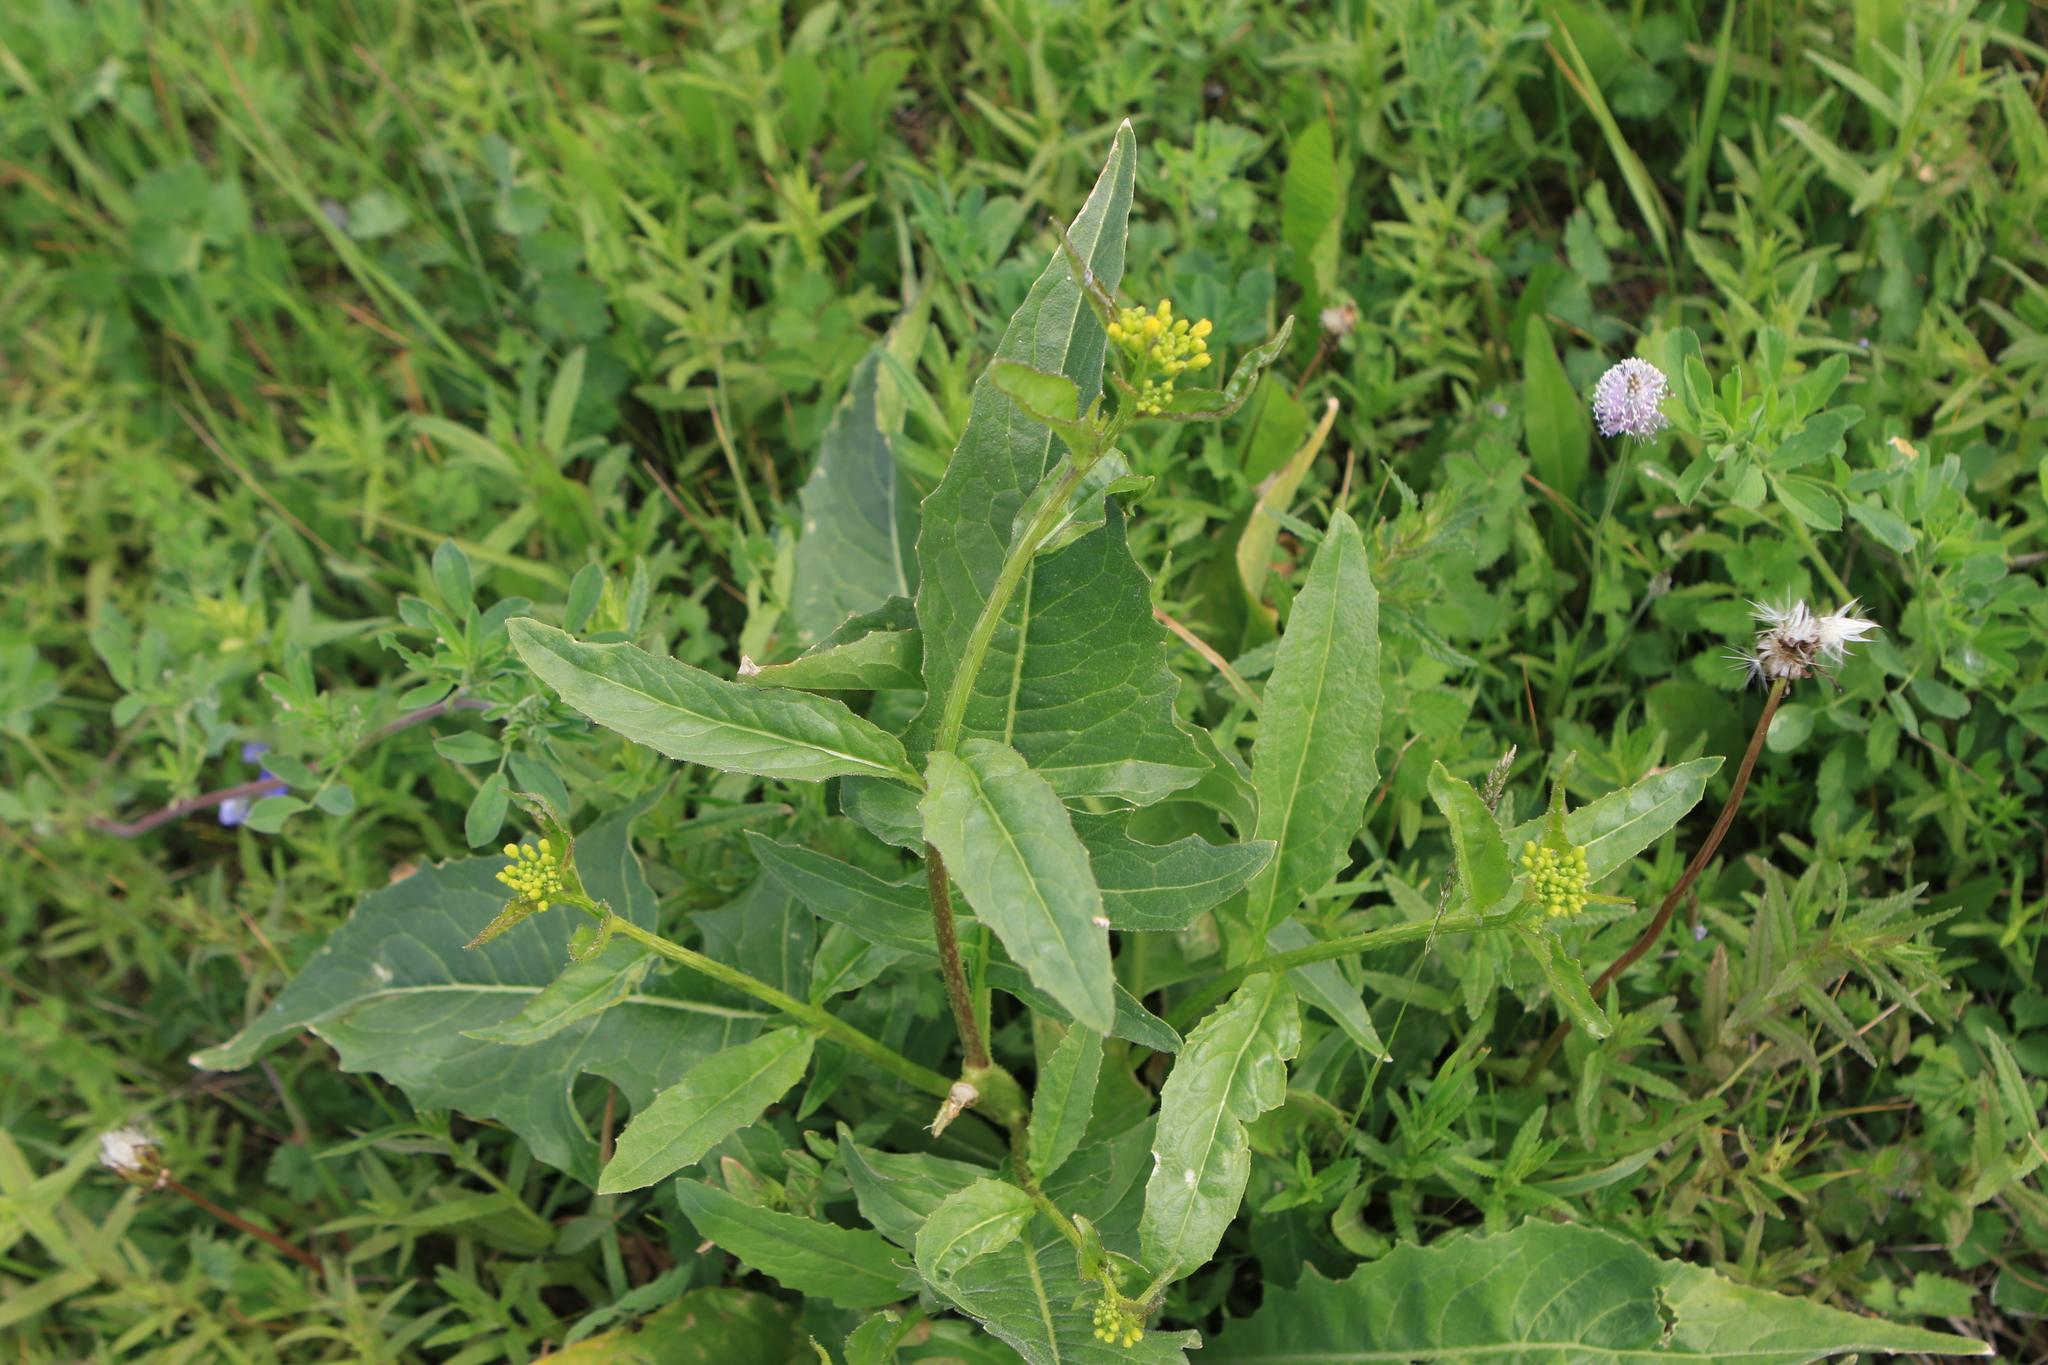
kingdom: Plantae
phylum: Tracheophyta
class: Magnoliopsida
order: Brassicales
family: Brassicaceae
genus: Bunias
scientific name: Bunias orientalis
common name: Warty-cabbage
